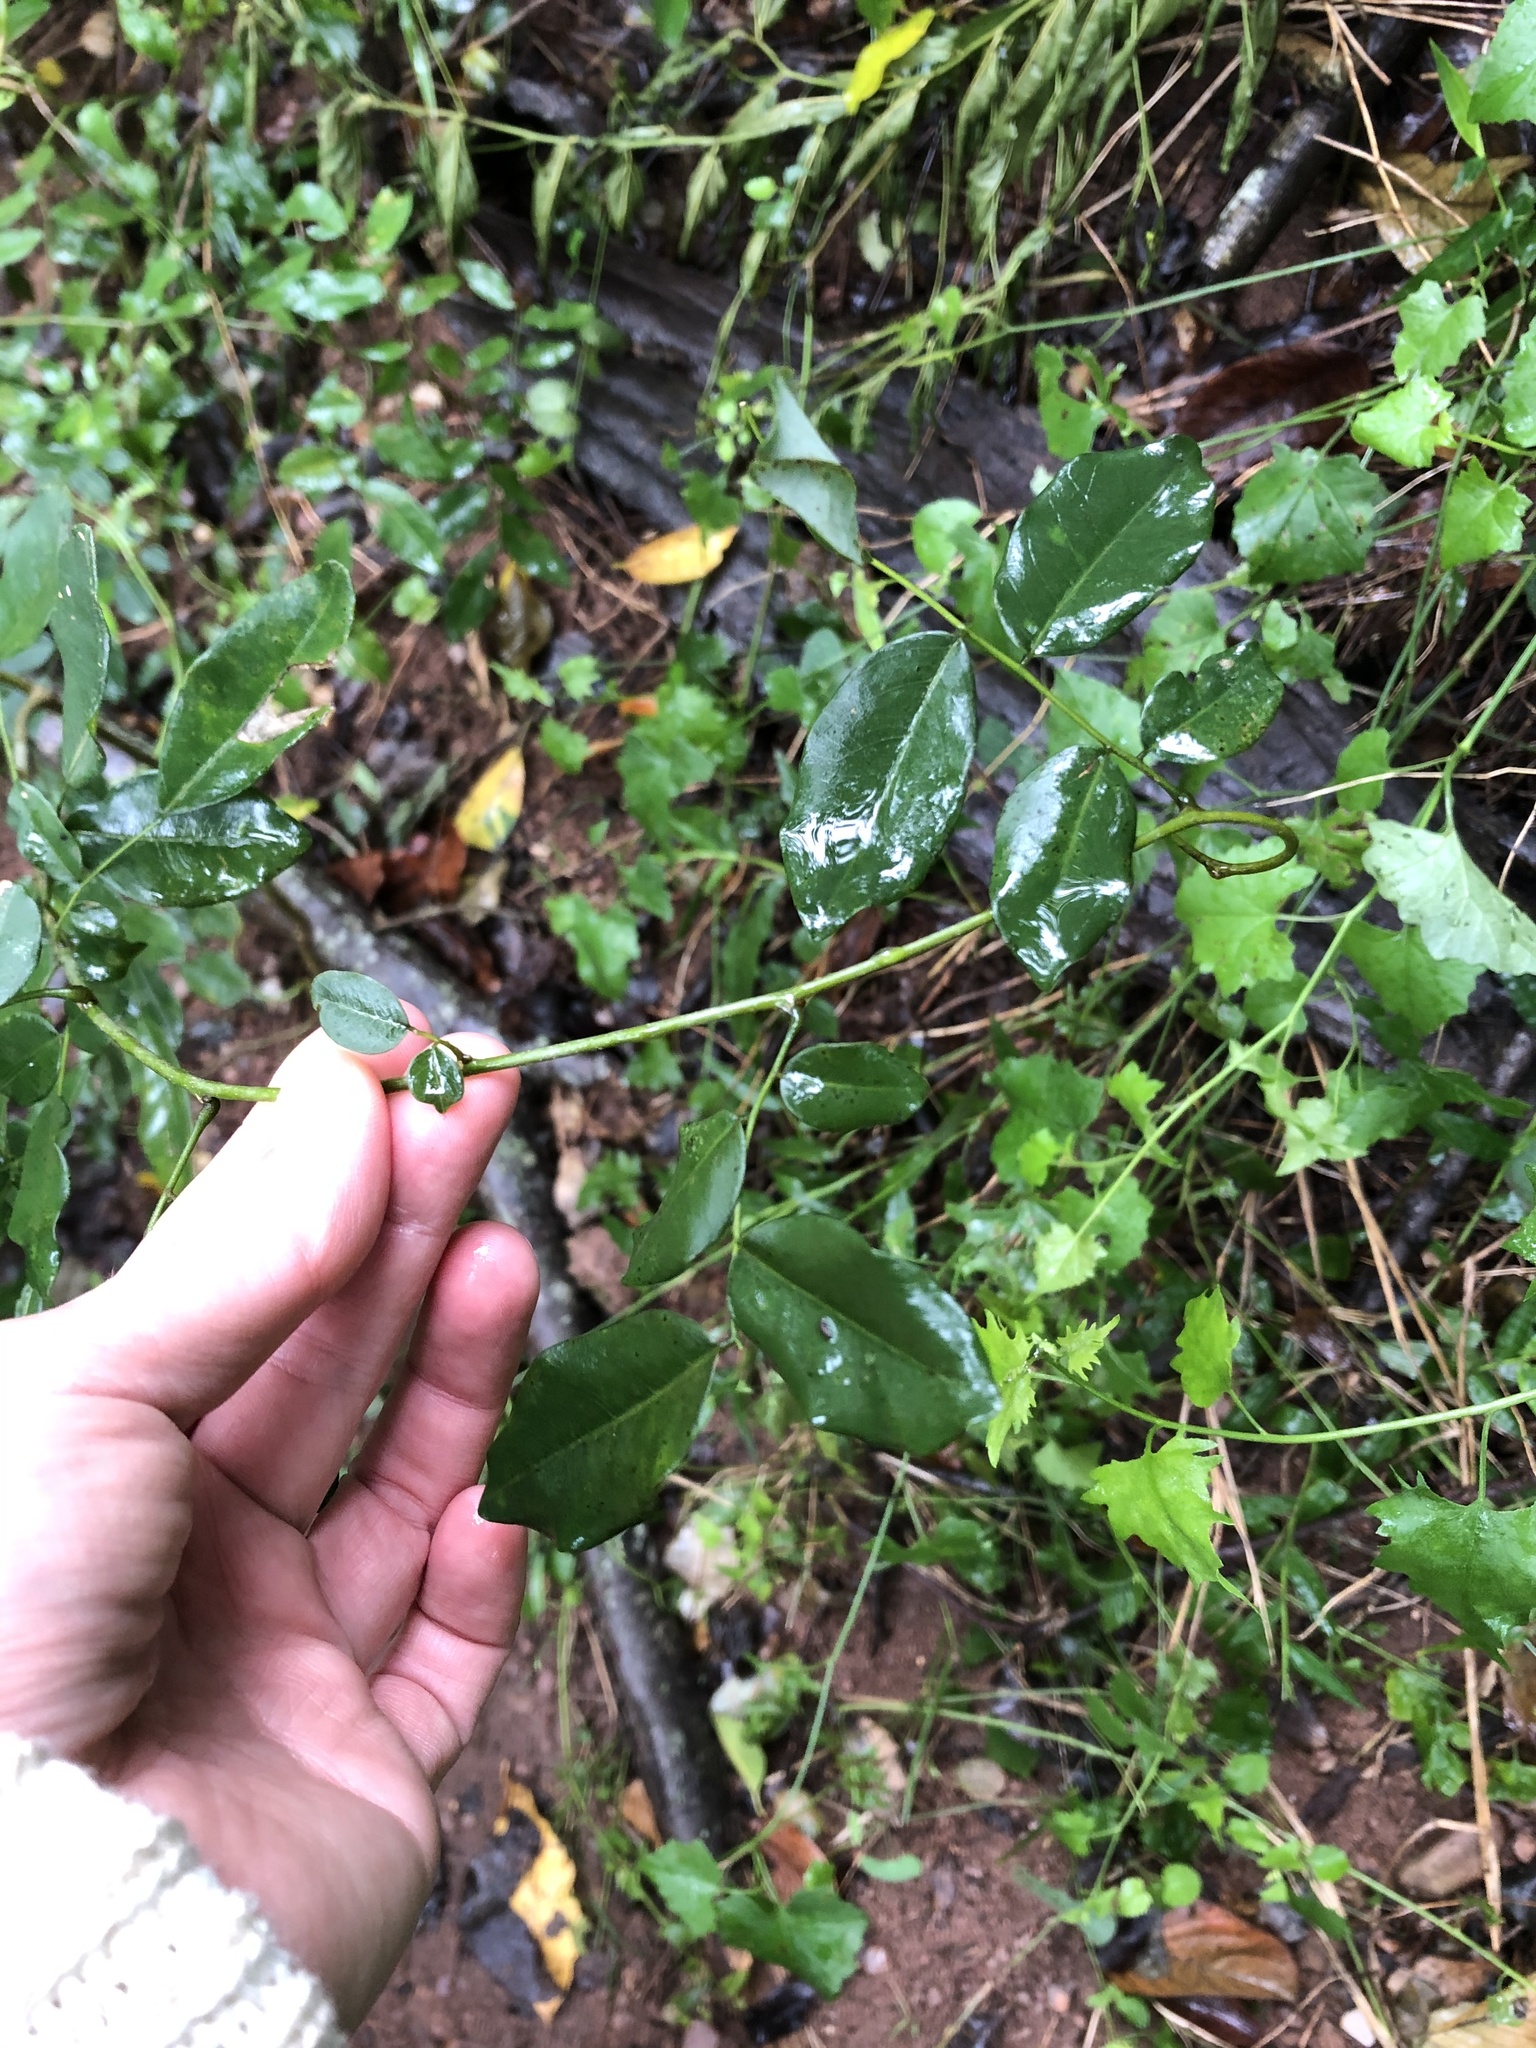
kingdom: Plantae
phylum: Tracheophyta
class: Magnoliopsida
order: Fabales
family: Fabaceae
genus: Dalbergia
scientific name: Dalbergia obovata
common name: Climbing flat-bean
